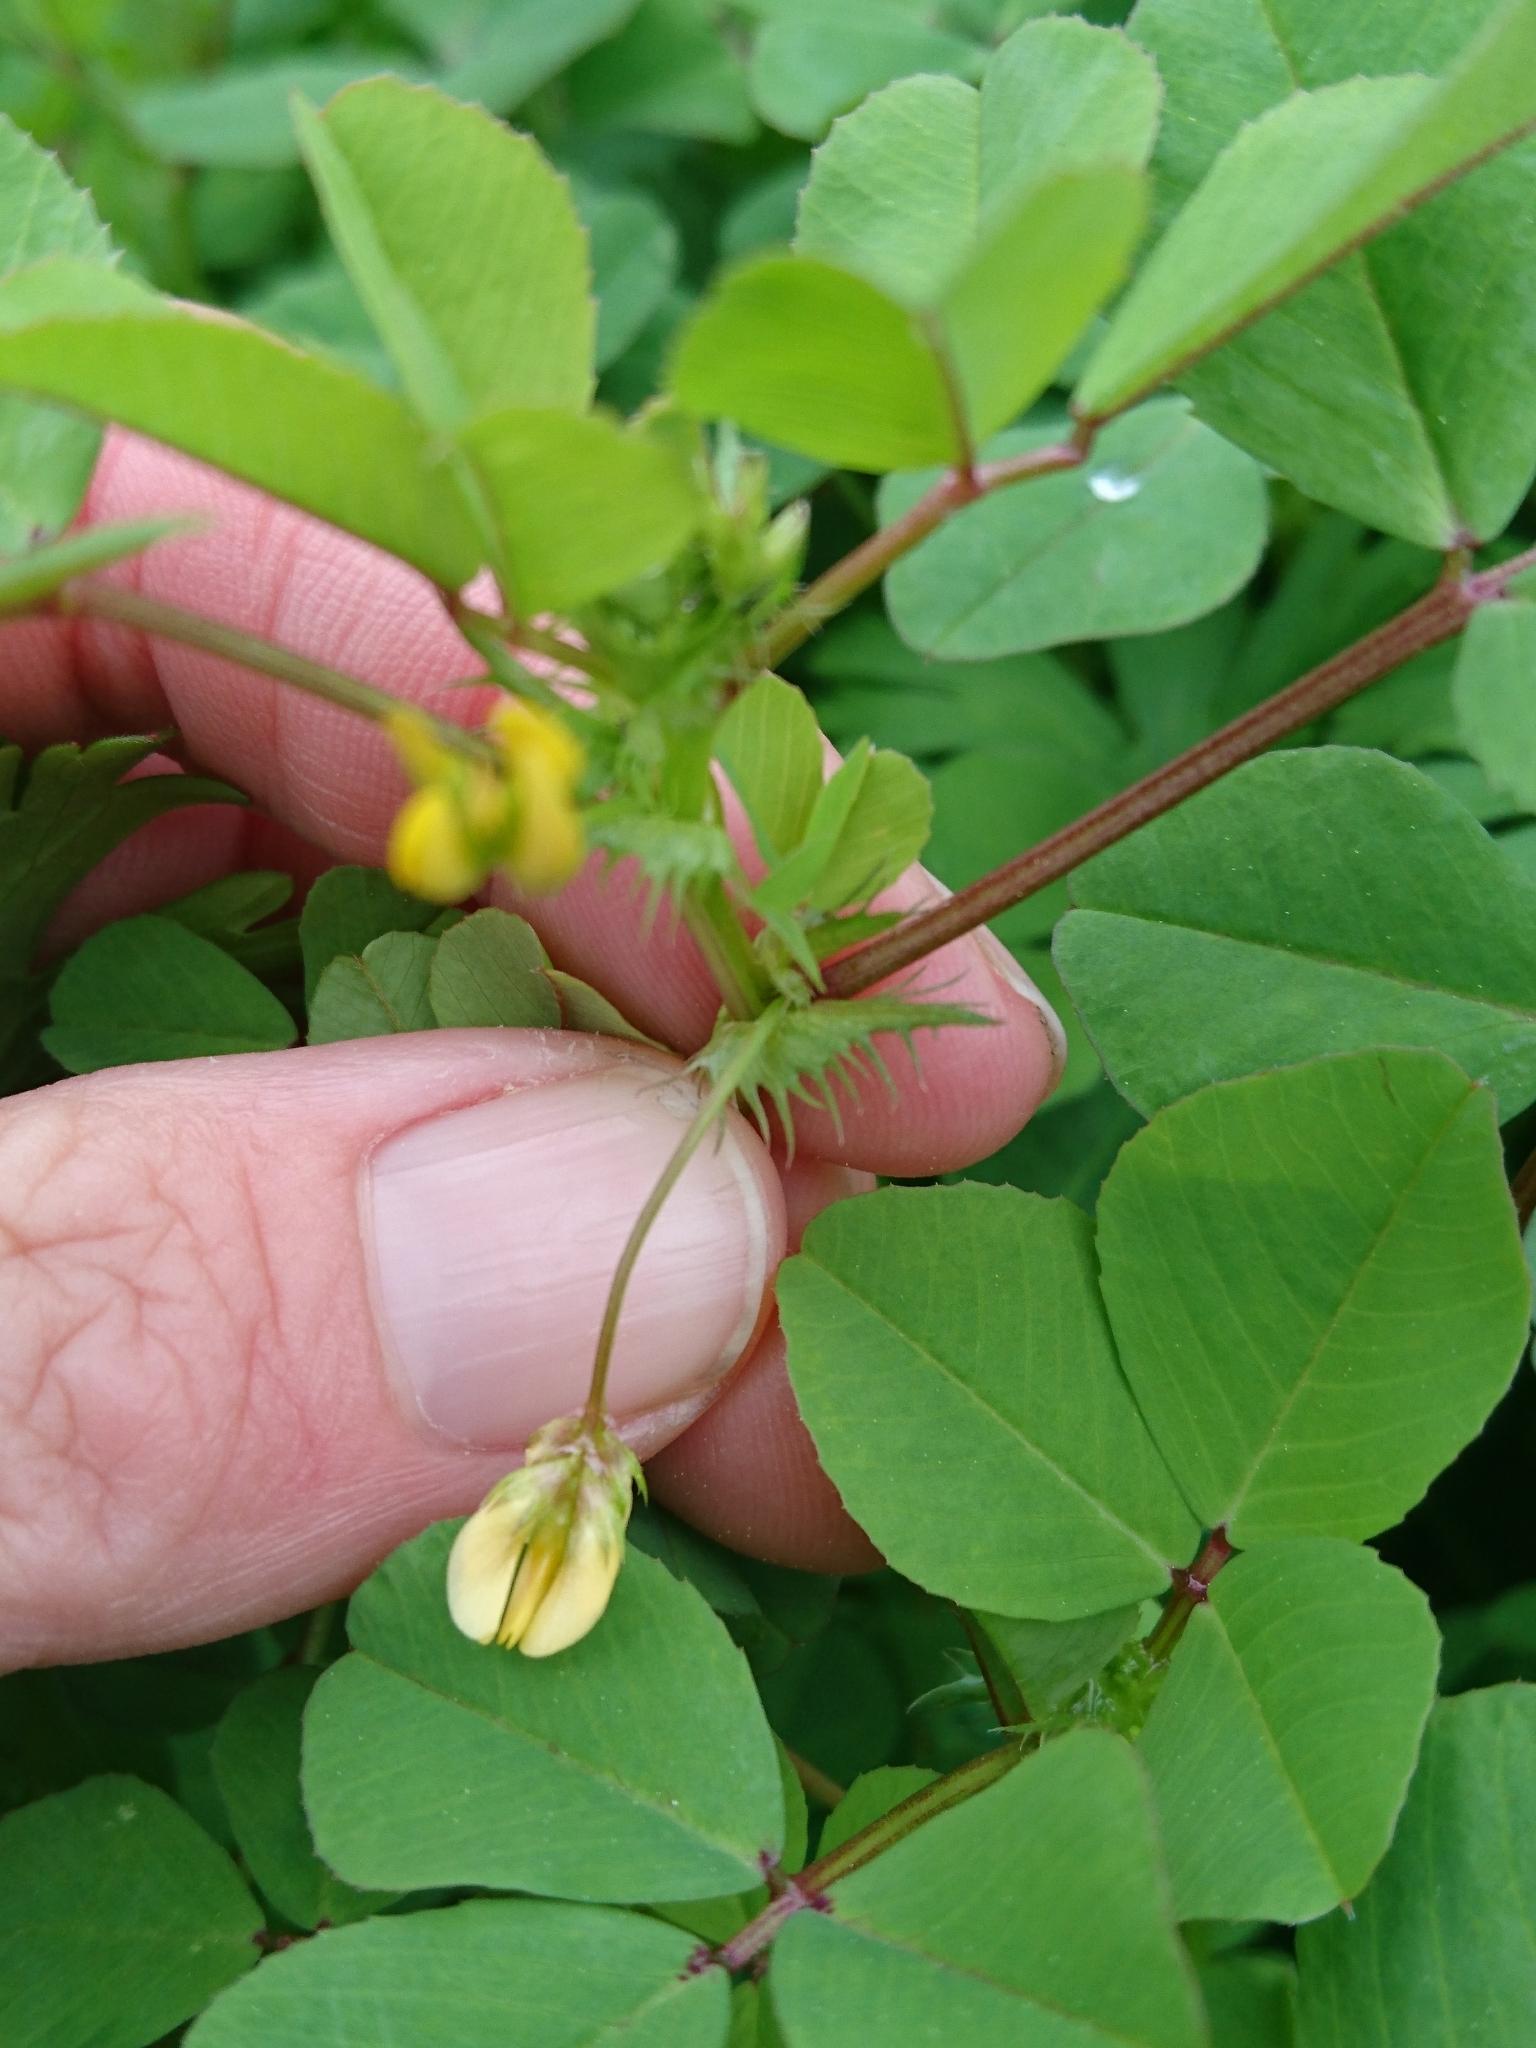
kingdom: Plantae
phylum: Tracheophyta
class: Magnoliopsida
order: Fabales
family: Fabaceae
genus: Medicago
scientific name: Medicago polymorpha
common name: Burclover
